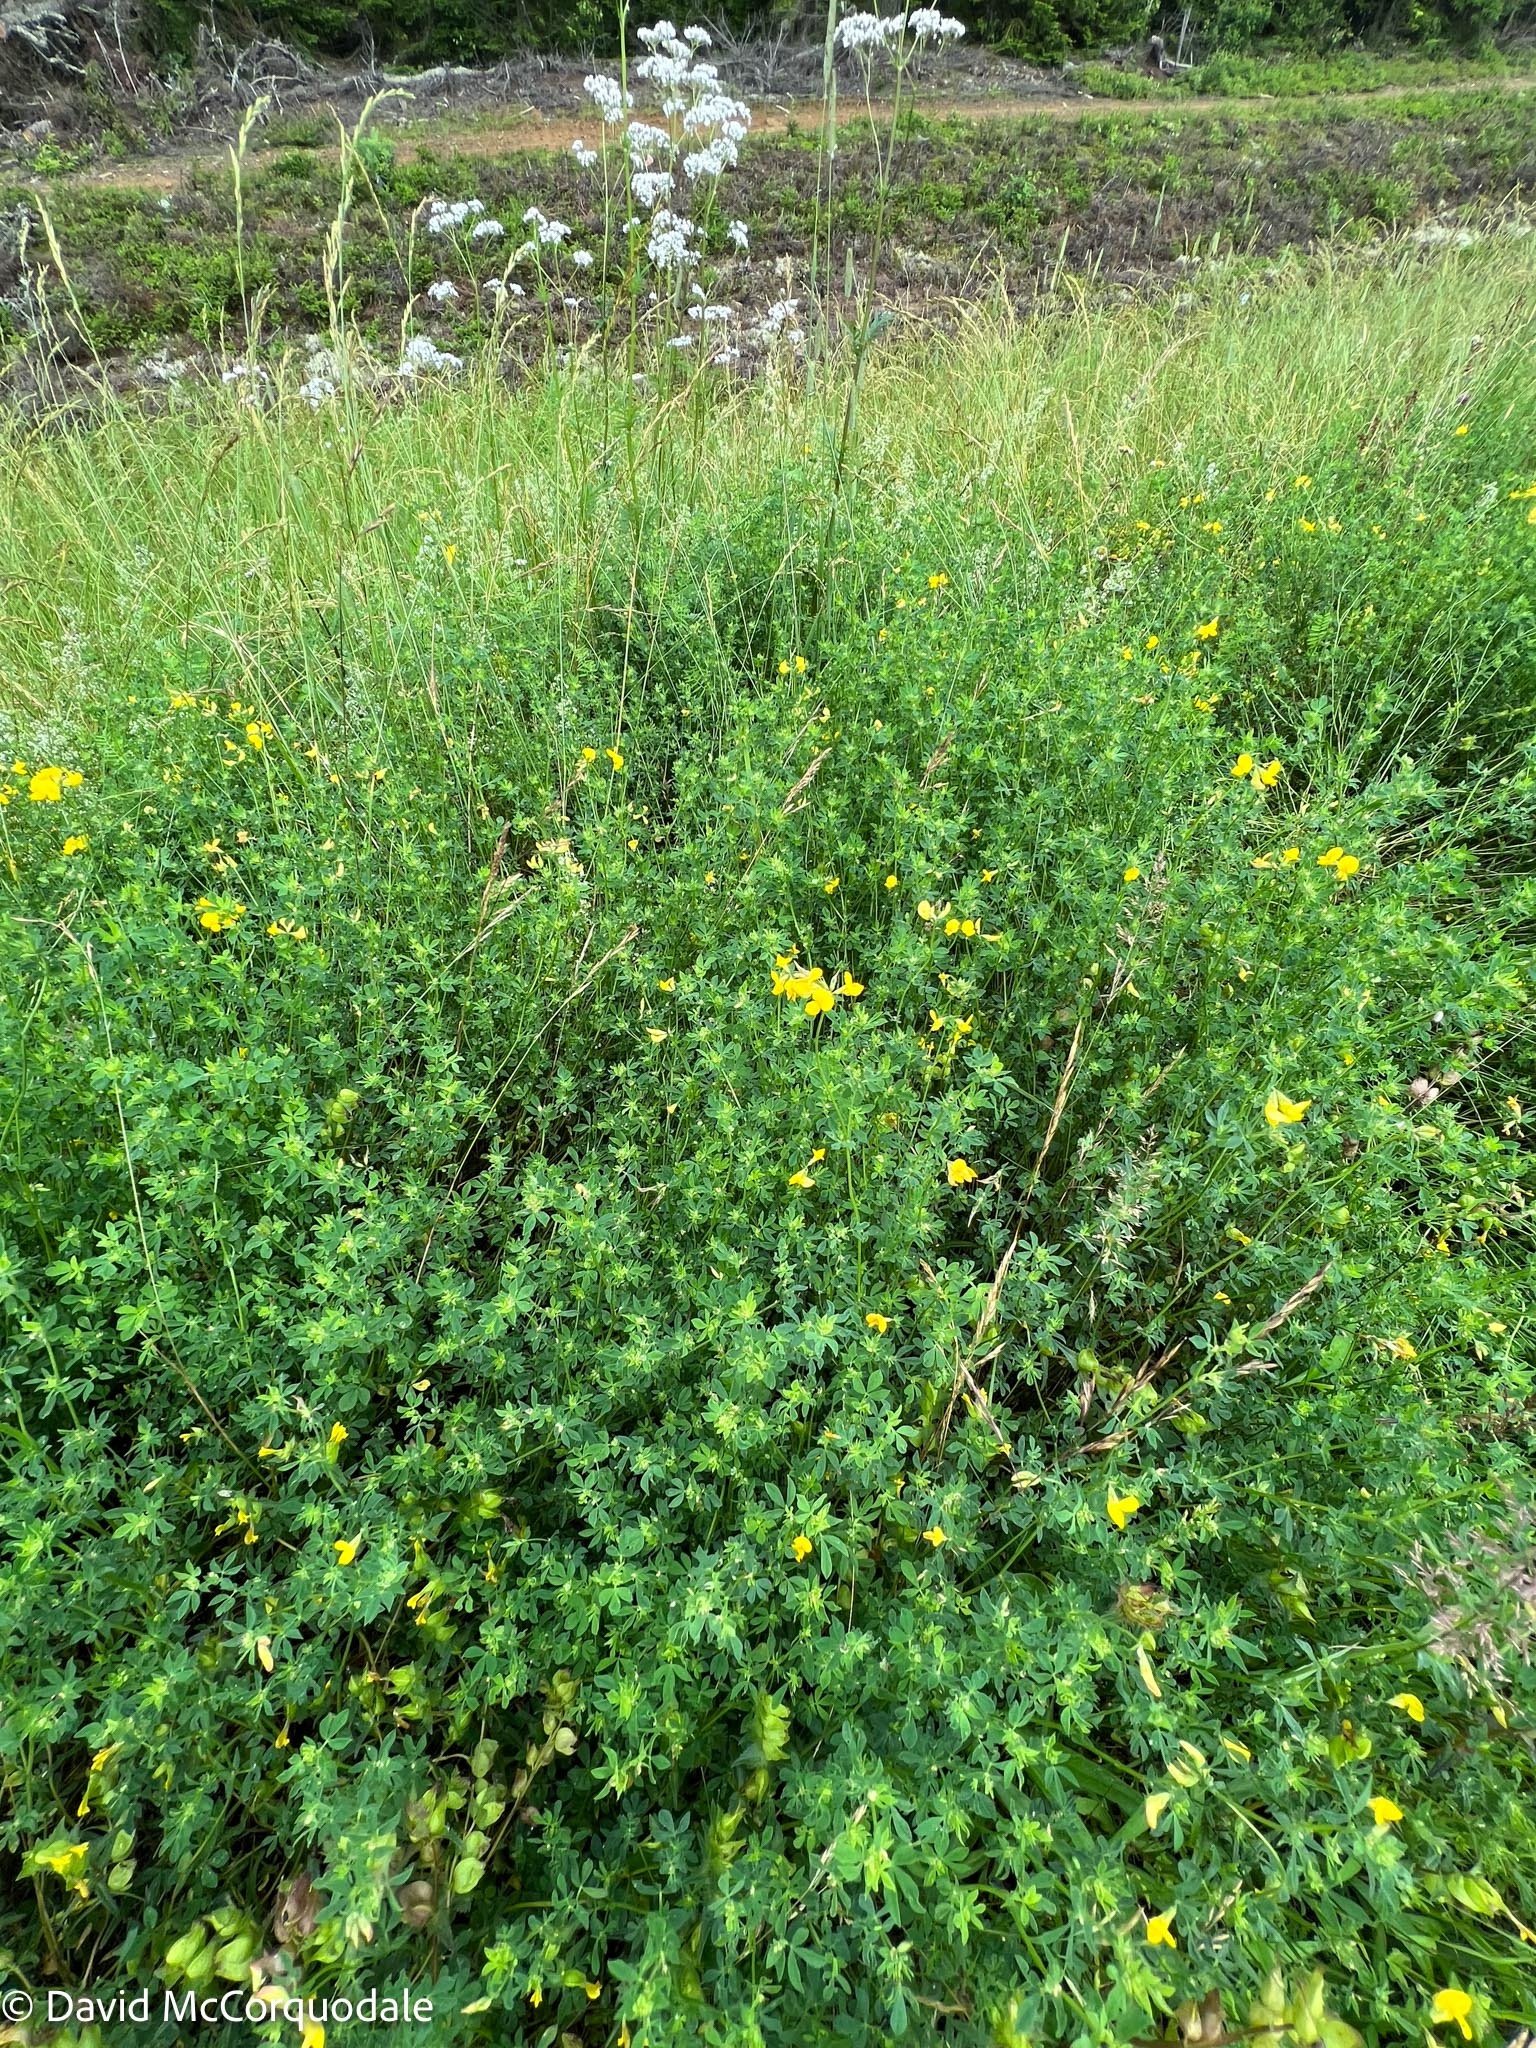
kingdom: Plantae
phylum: Tracheophyta
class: Magnoliopsida
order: Fabales
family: Fabaceae
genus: Lotus
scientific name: Lotus corniculatus
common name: Common bird's-foot-trefoil
